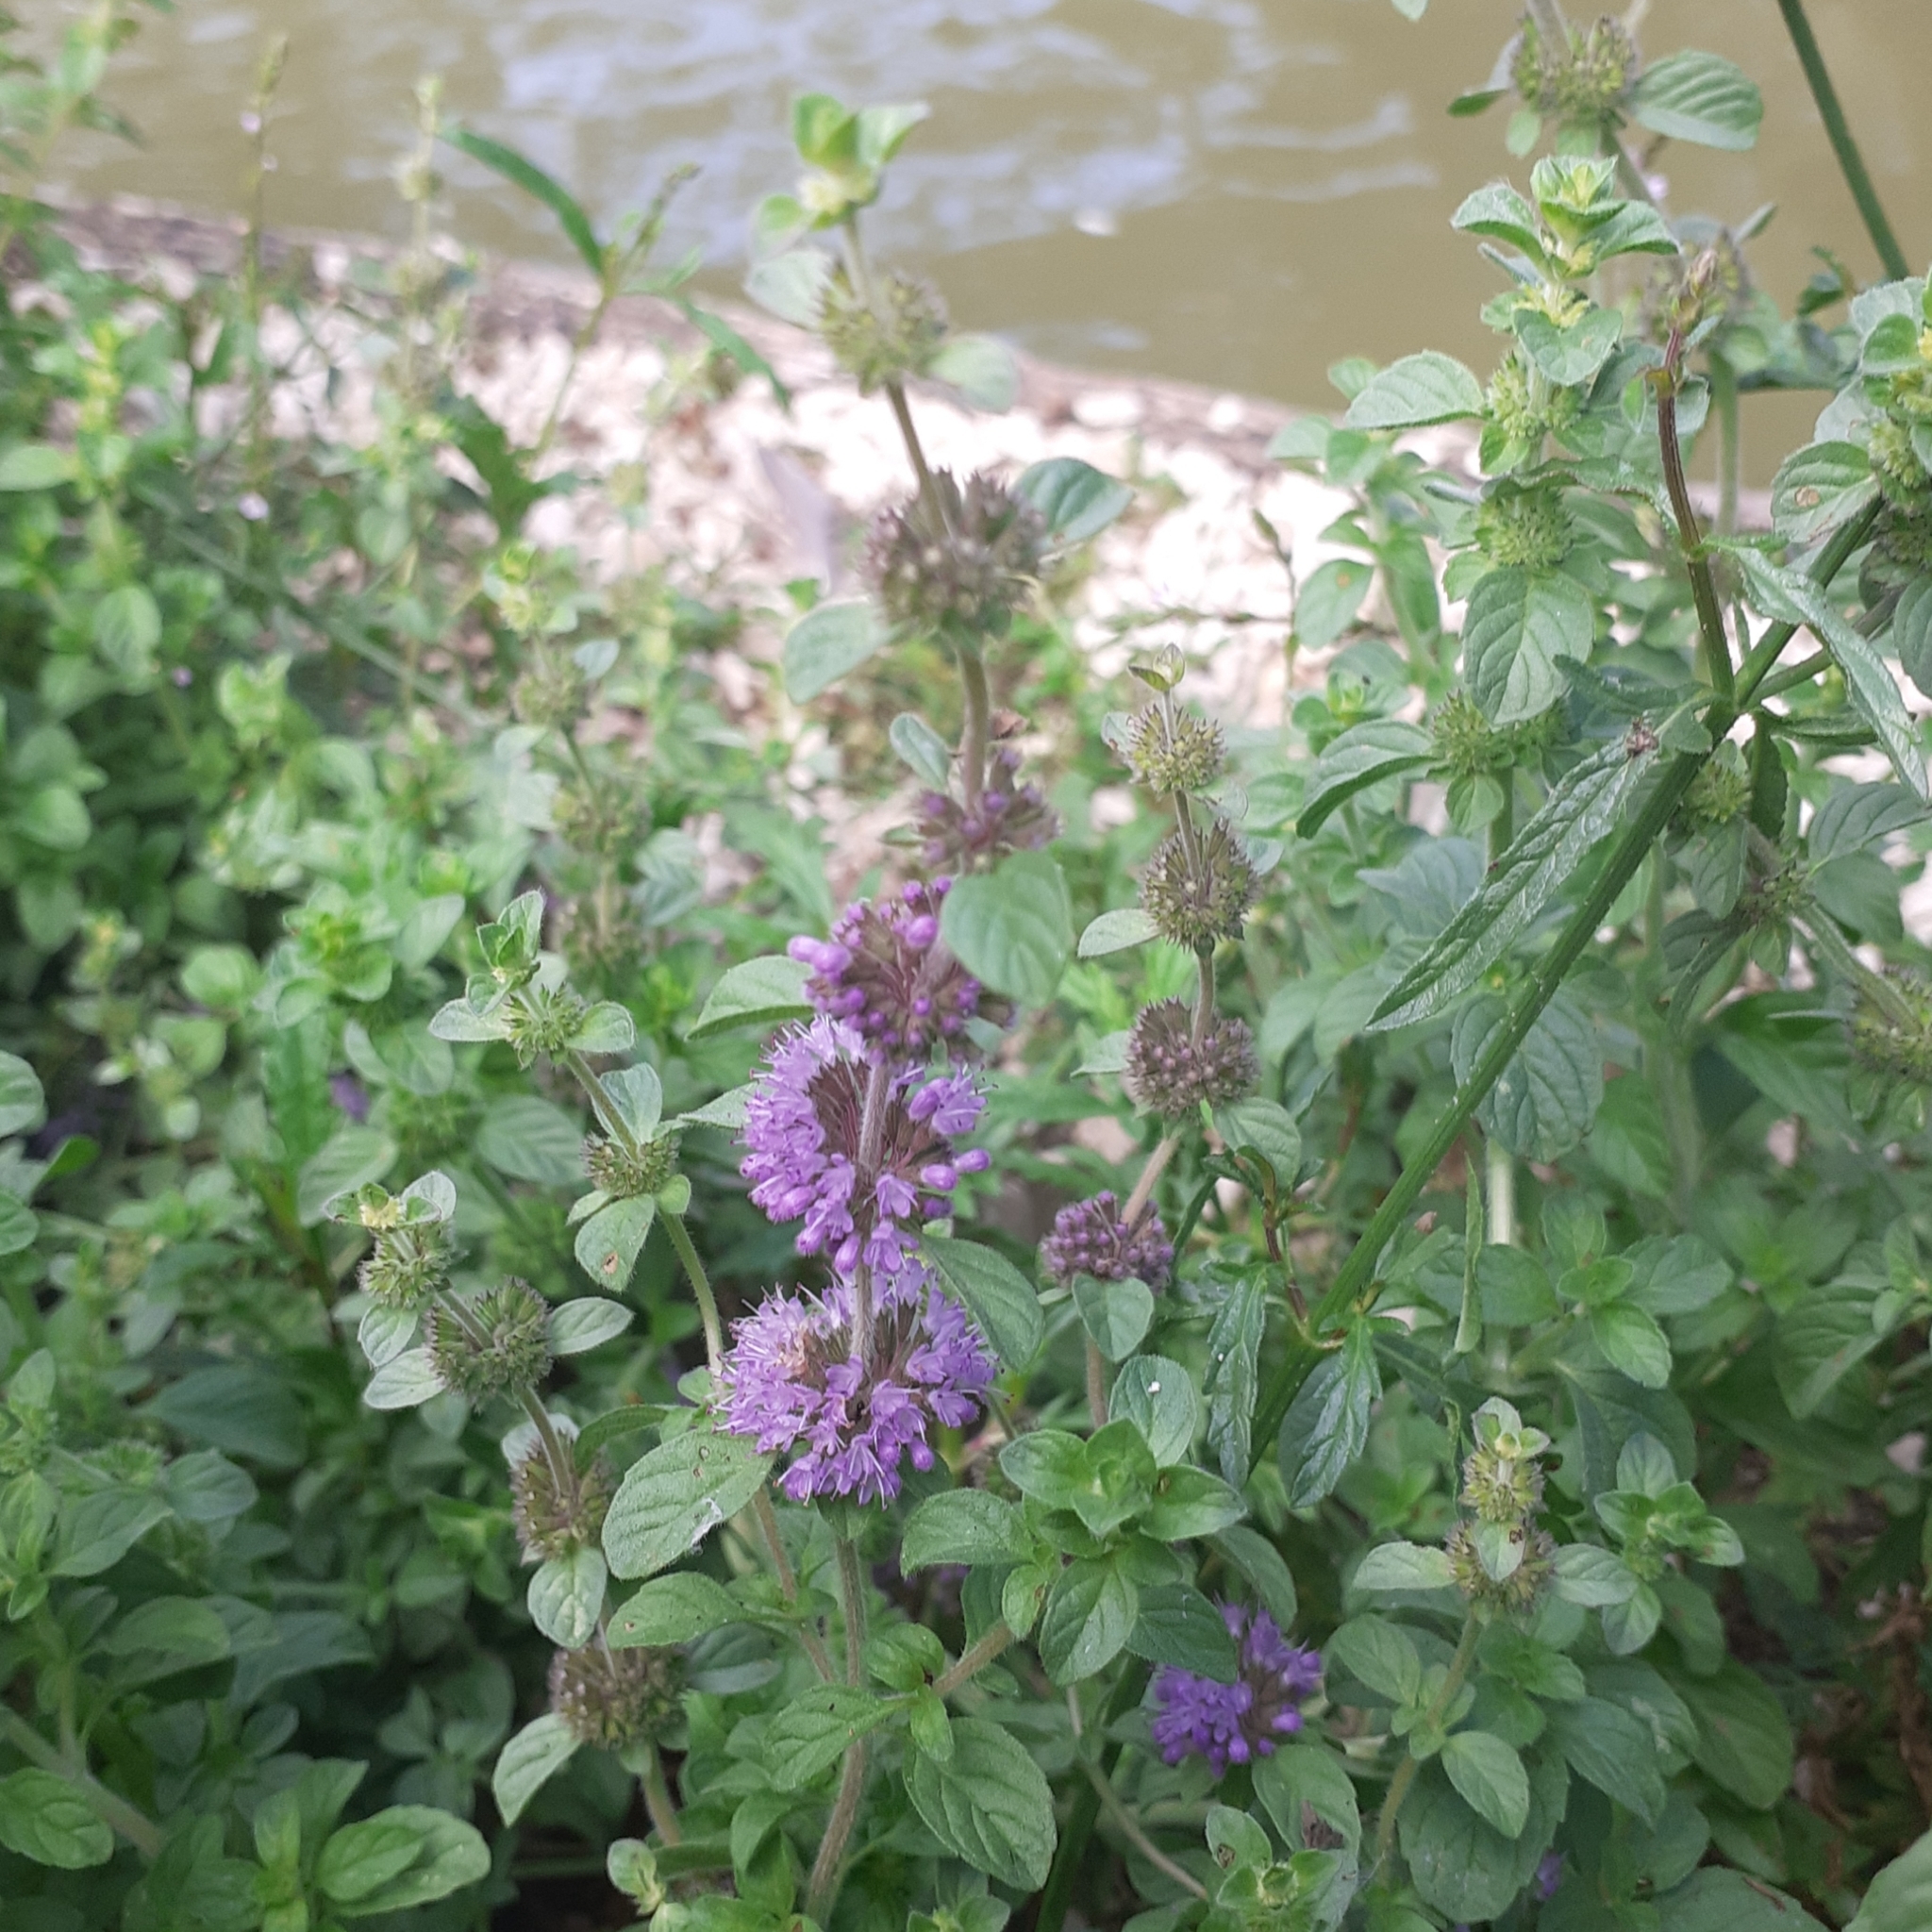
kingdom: Plantae
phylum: Tracheophyta
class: Magnoliopsida
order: Lamiales
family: Lamiaceae
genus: Mentha
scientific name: Mentha pulegium
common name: Pennyroyal
